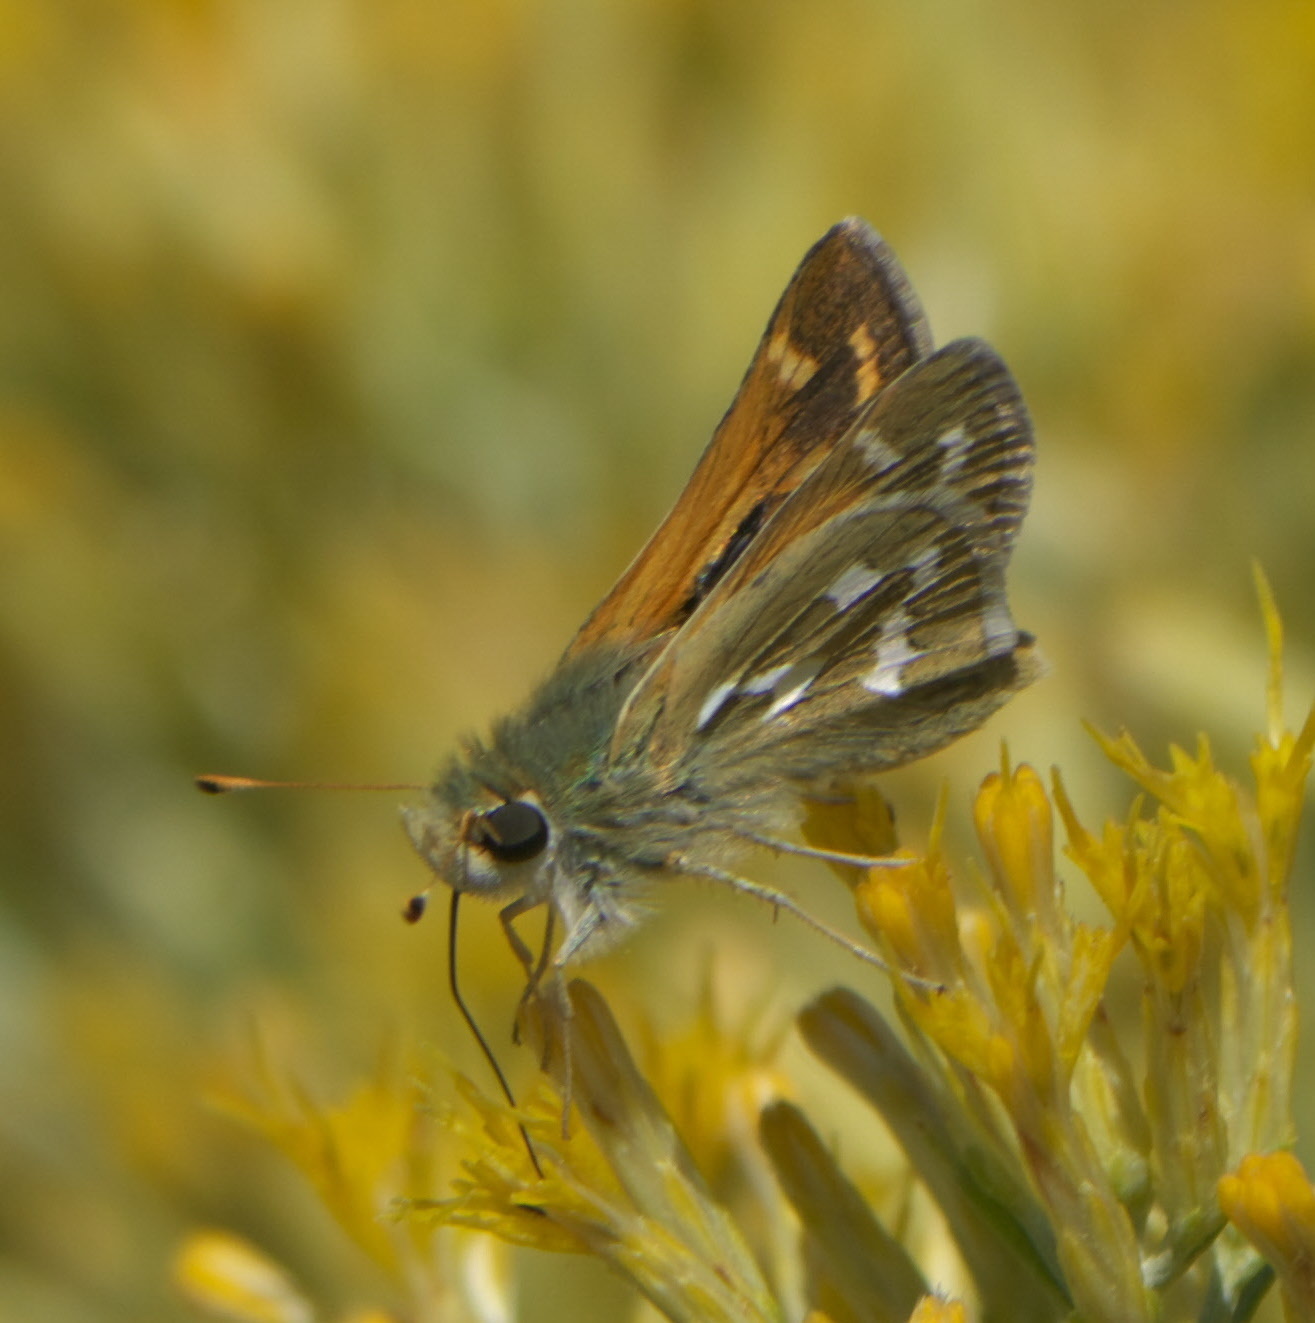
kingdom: Animalia
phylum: Arthropoda
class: Insecta
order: Lepidoptera
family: Hesperiidae
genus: Hesperia
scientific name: Hesperia comma
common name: Common branded skipper
